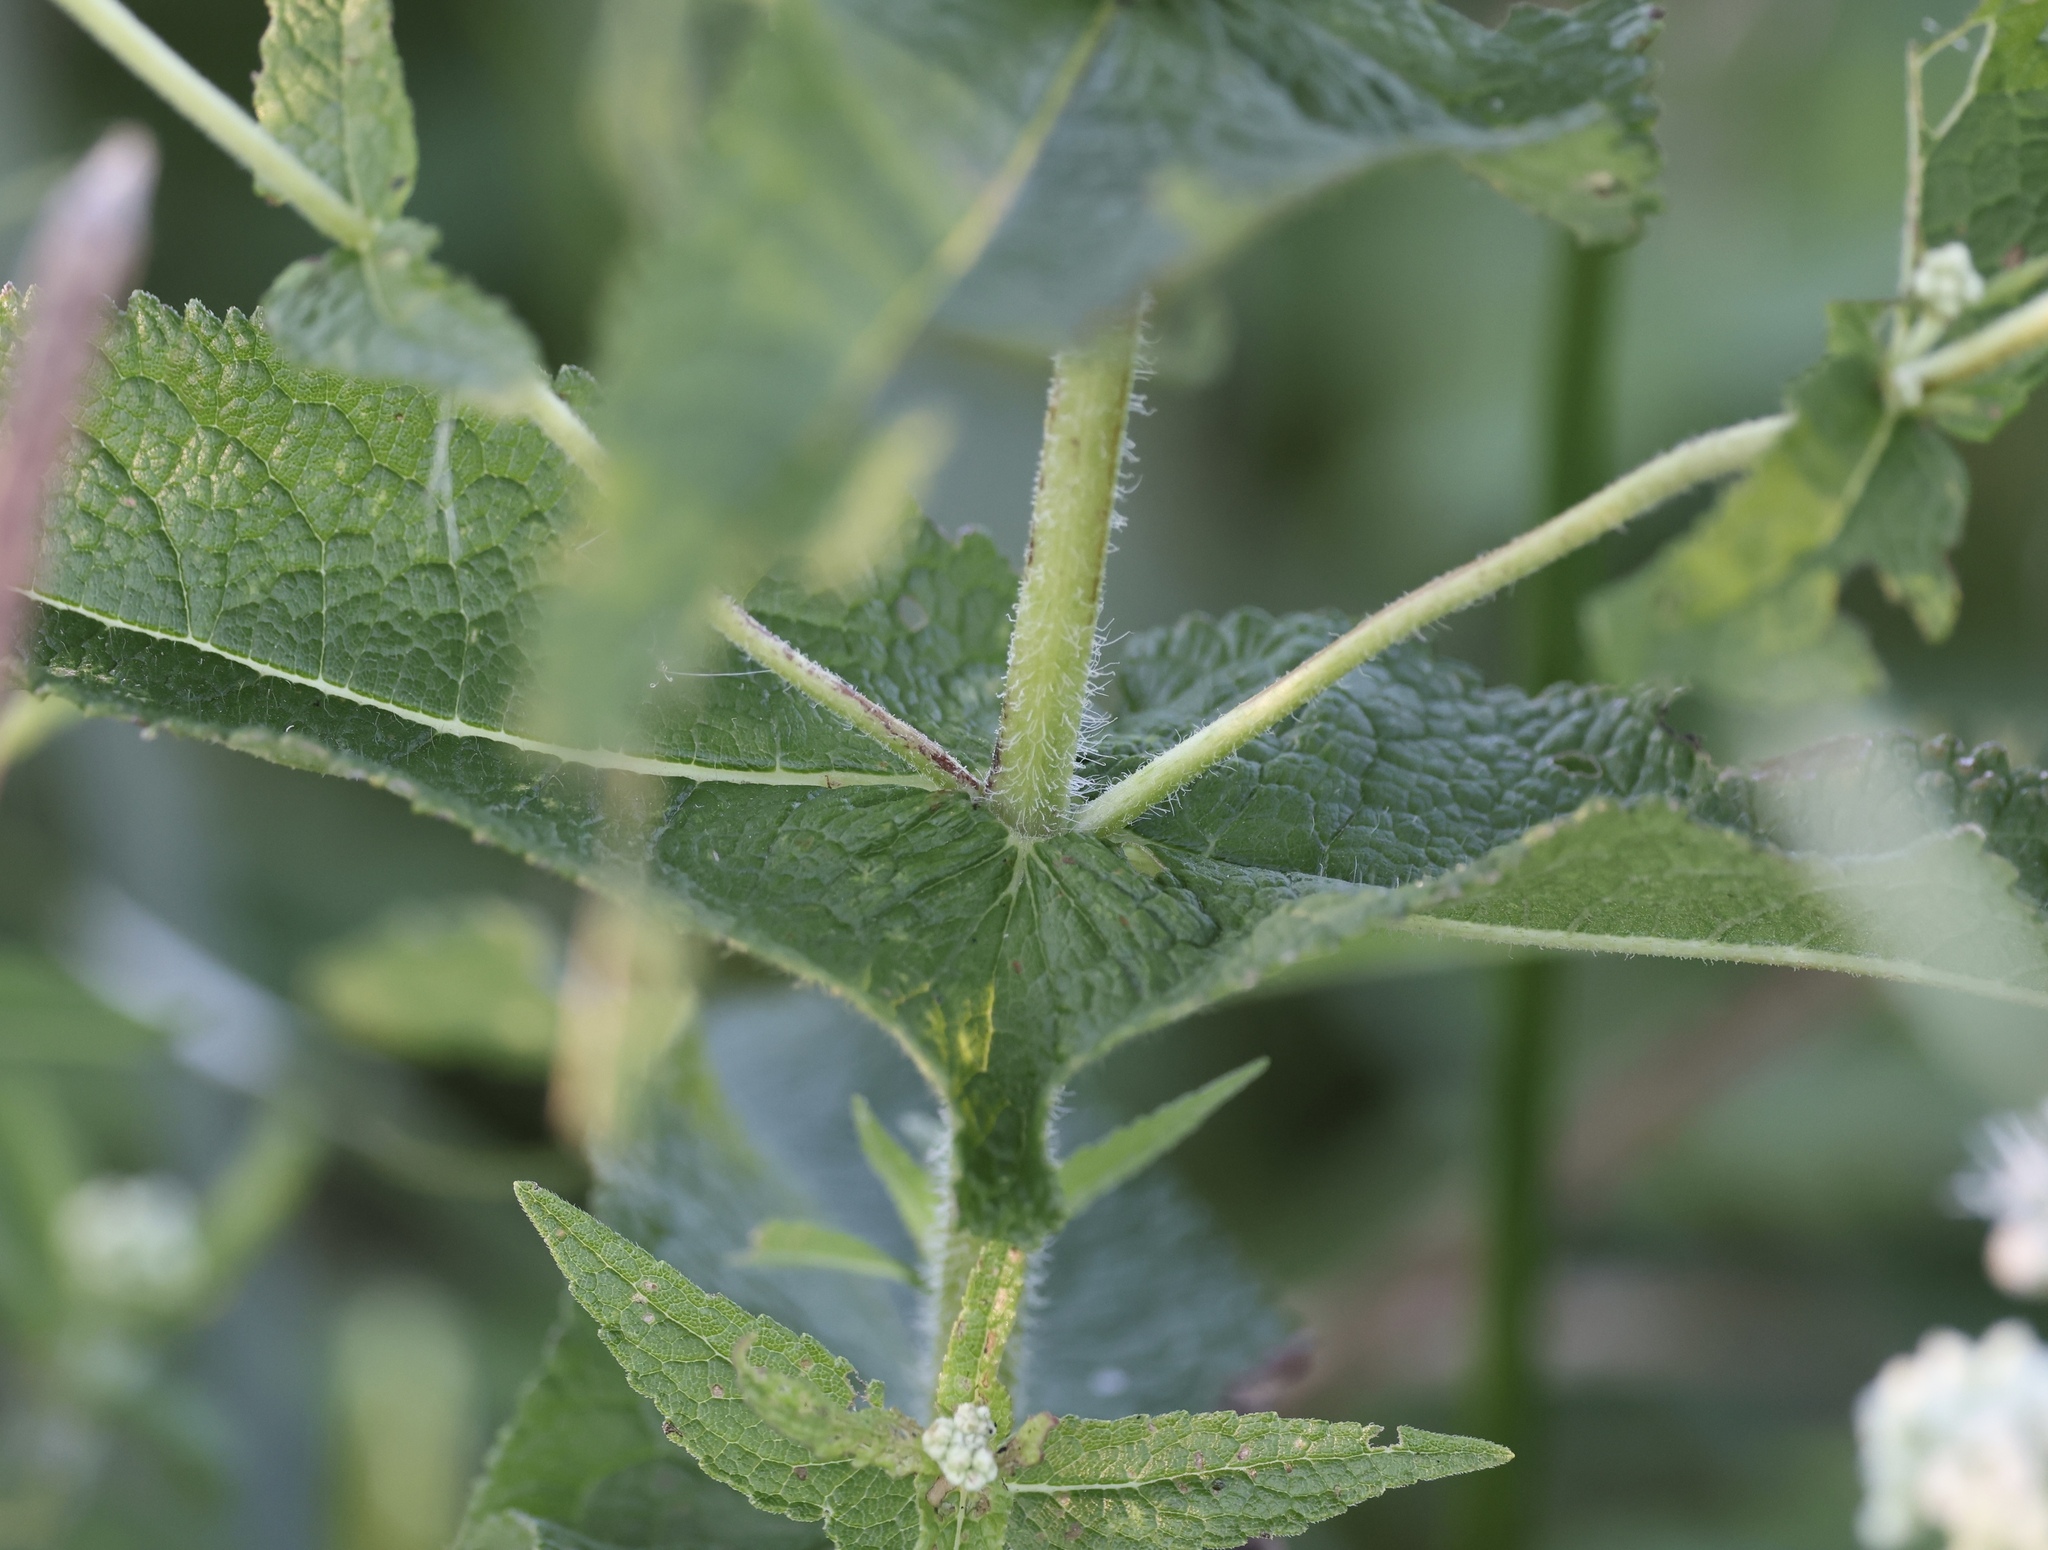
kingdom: Plantae
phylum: Tracheophyta
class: Magnoliopsida
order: Asterales
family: Asteraceae
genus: Eupatorium
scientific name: Eupatorium perfoliatum
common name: Boneset
